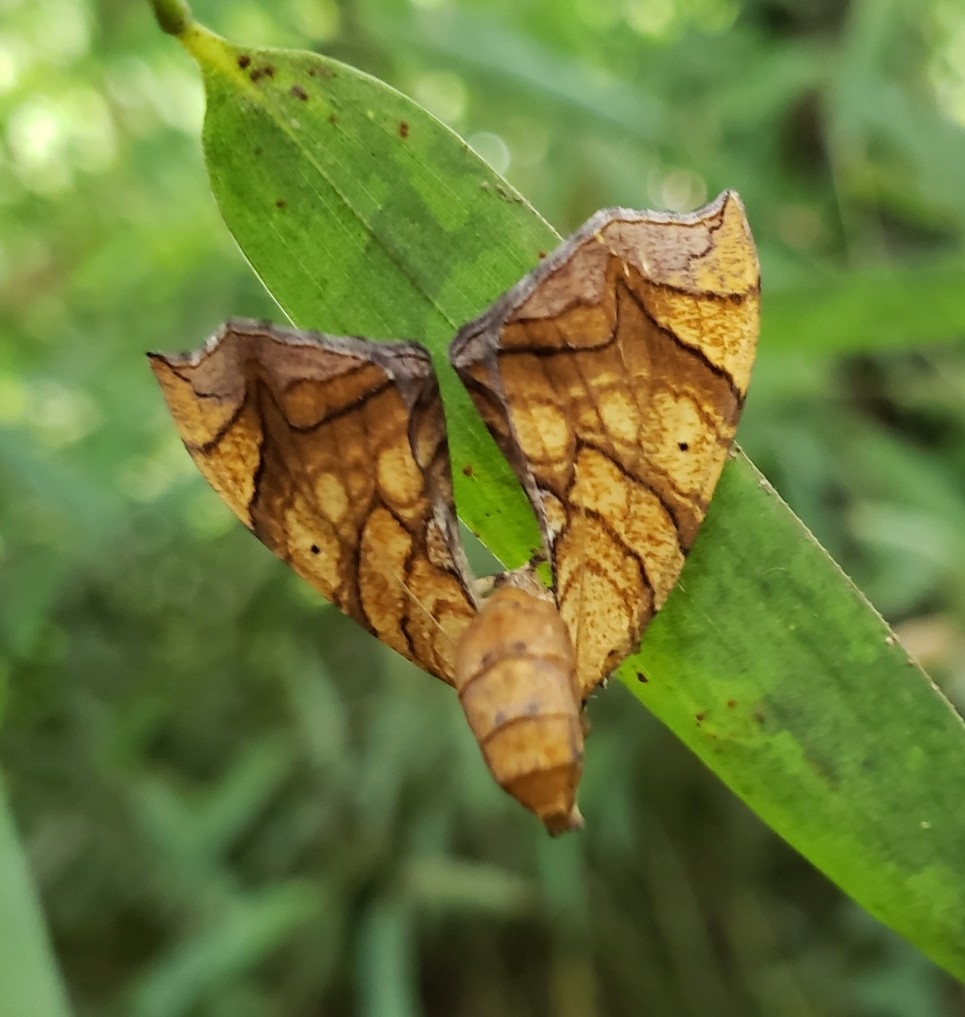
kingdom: Animalia
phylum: Arthropoda
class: Insecta
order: Lepidoptera
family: Geometridae
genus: Eulithis
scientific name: Eulithis gracilineata
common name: Greater grapevine looper moth
